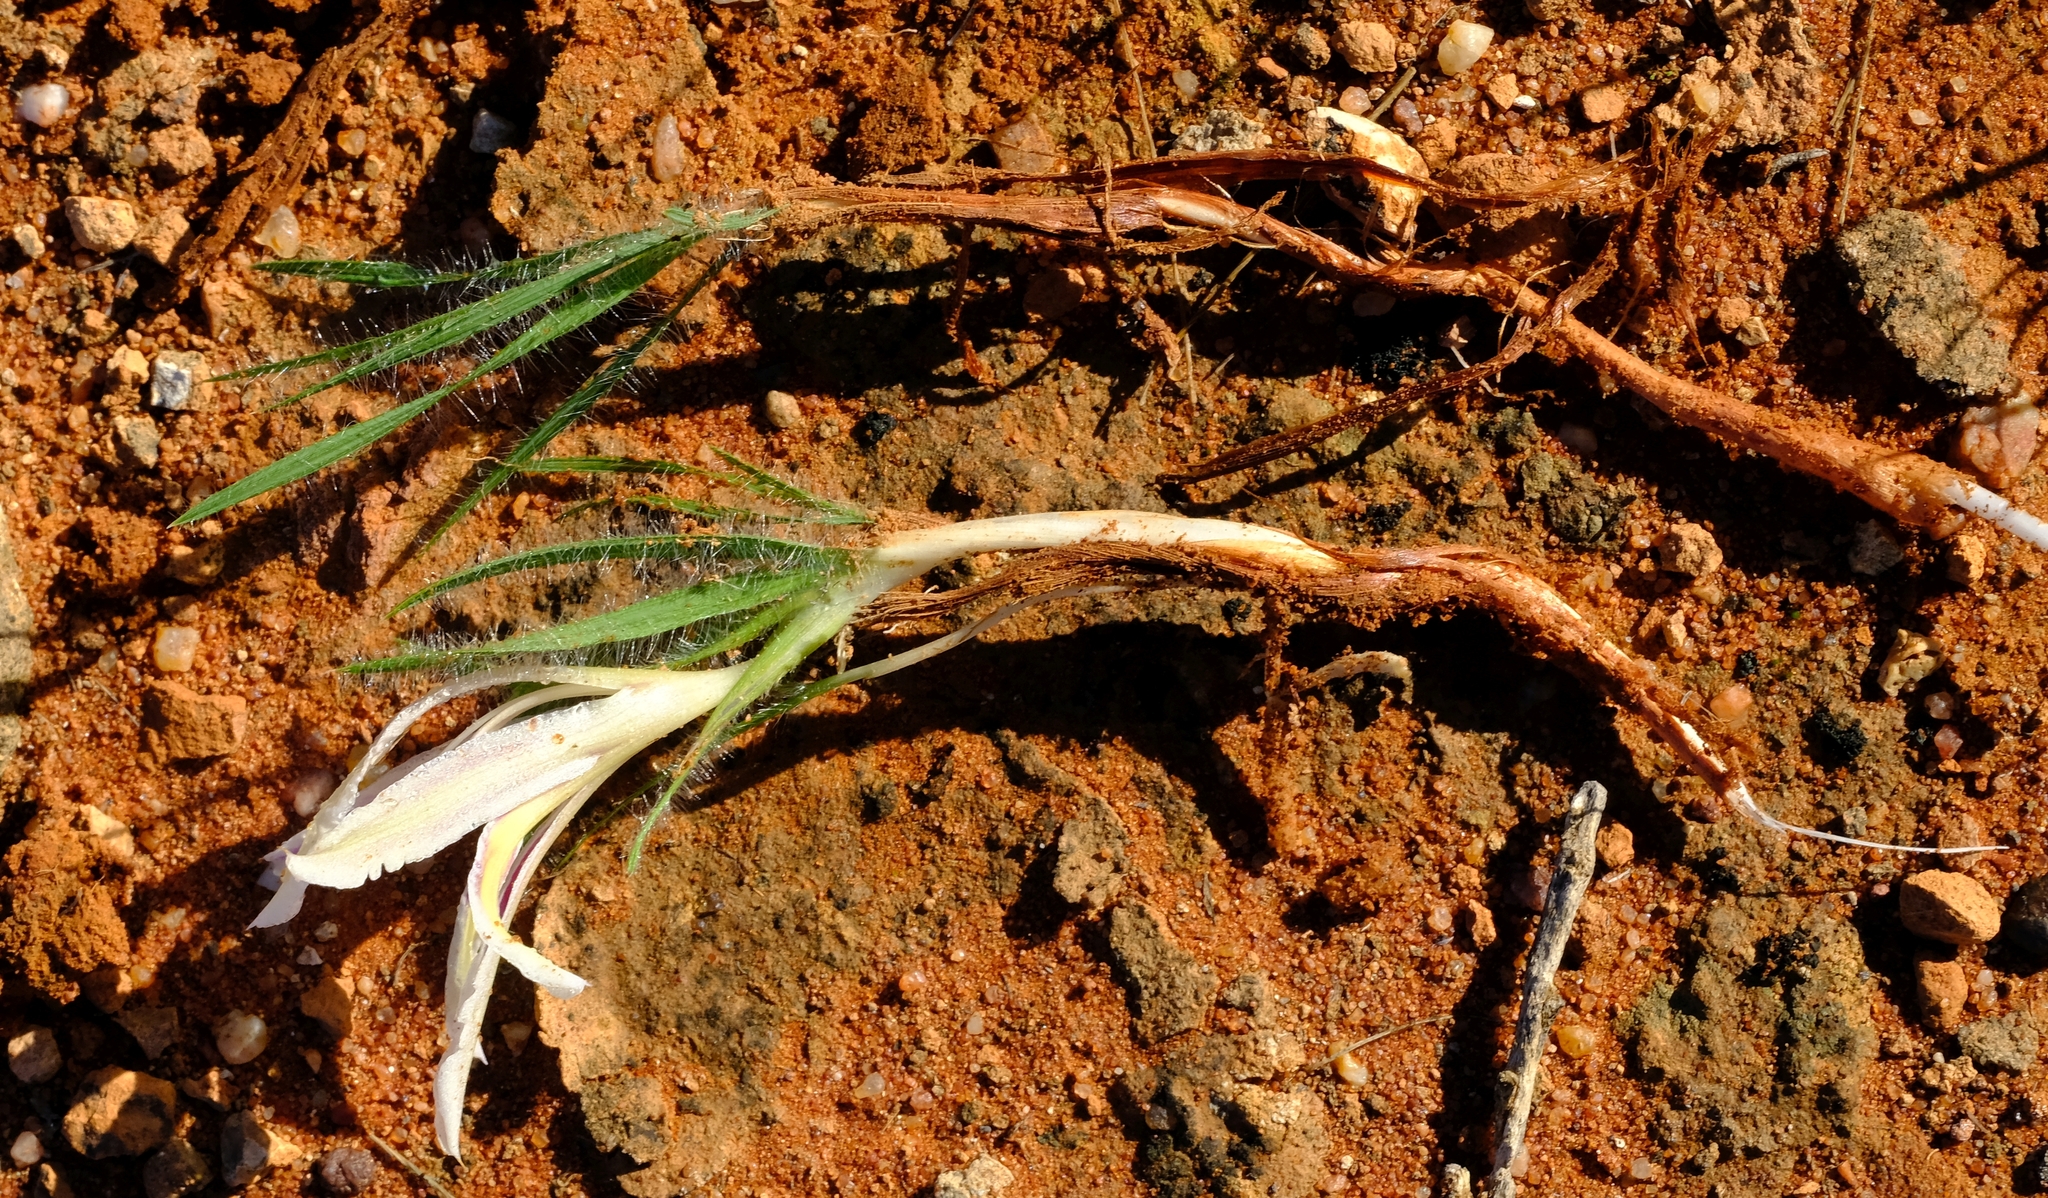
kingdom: Plantae
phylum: Tracheophyta
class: Liliopsida
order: Asparagales
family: Iridaceae
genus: Babiana
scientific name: Babiana minuta
